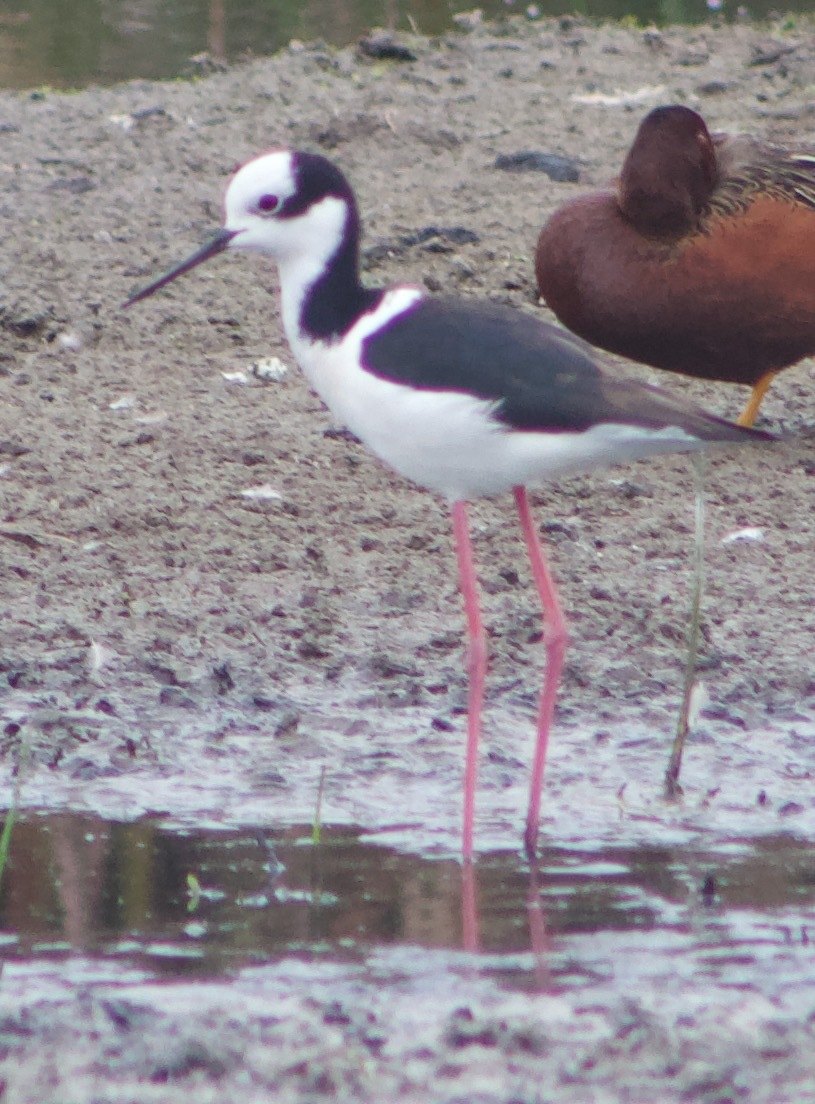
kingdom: Animalia
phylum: Chordata
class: Aves
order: Charadriiformes
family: Recurvirostridae
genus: Himantopus
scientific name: Himantopus mexicanus
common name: Black-necked stilt
